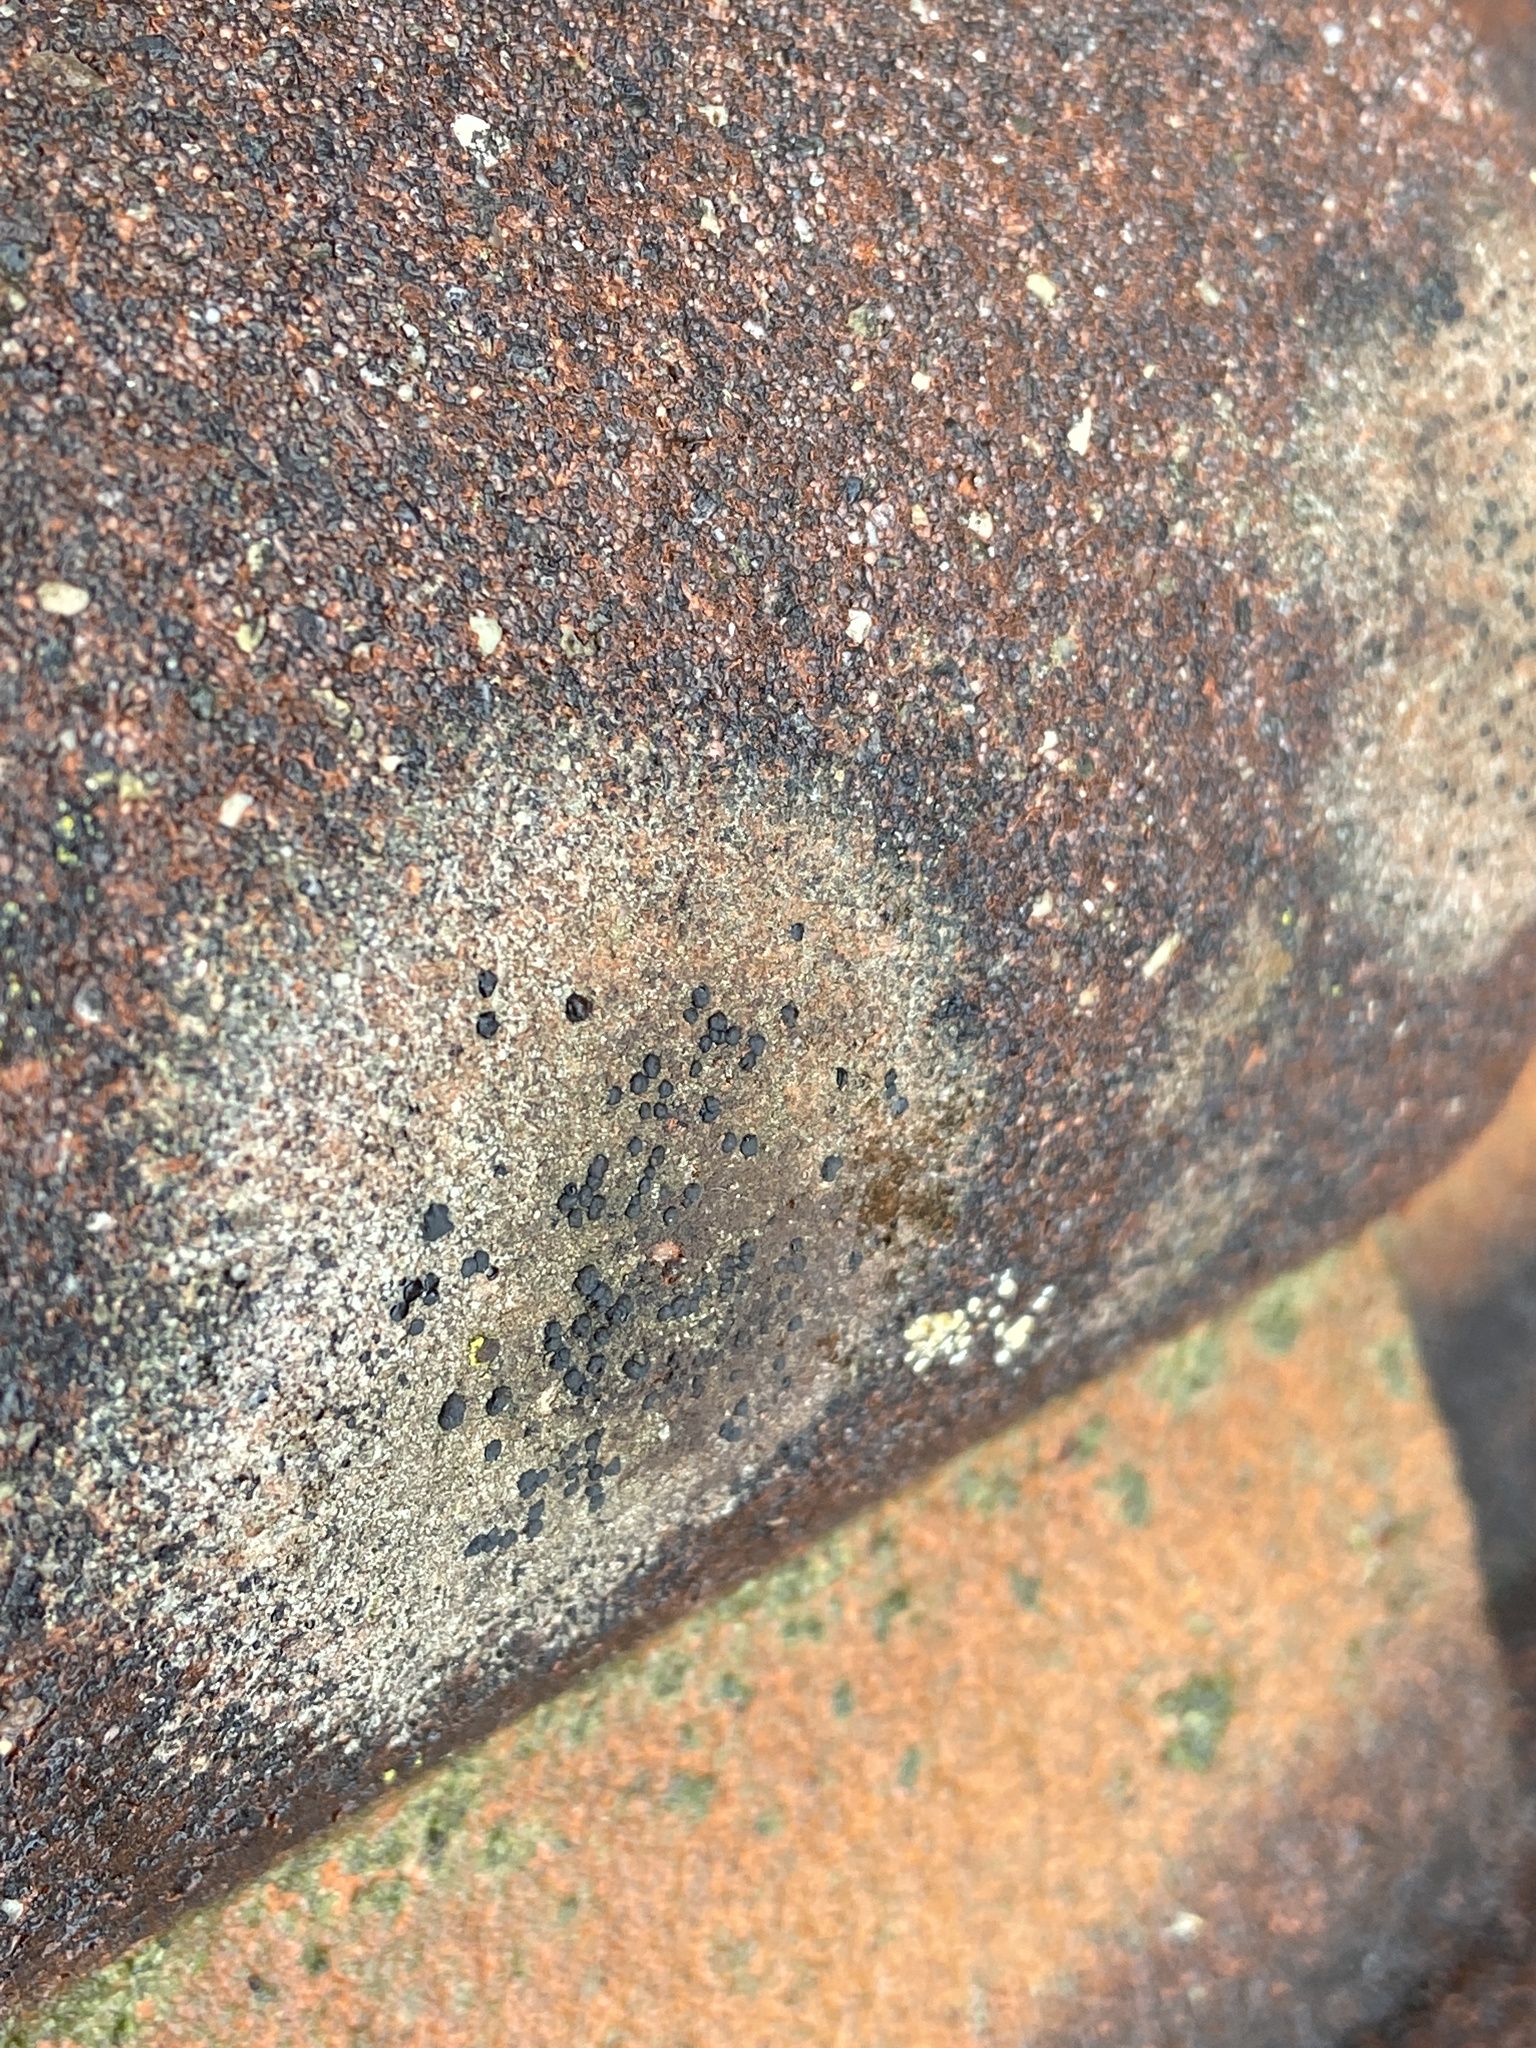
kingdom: Fungi
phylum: Ascomycota
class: Lecanoromycetes
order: Lecanorales
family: Lecanoraceae
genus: Lecidella
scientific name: Lecidella stigmatea
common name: Limestone disc lichen
